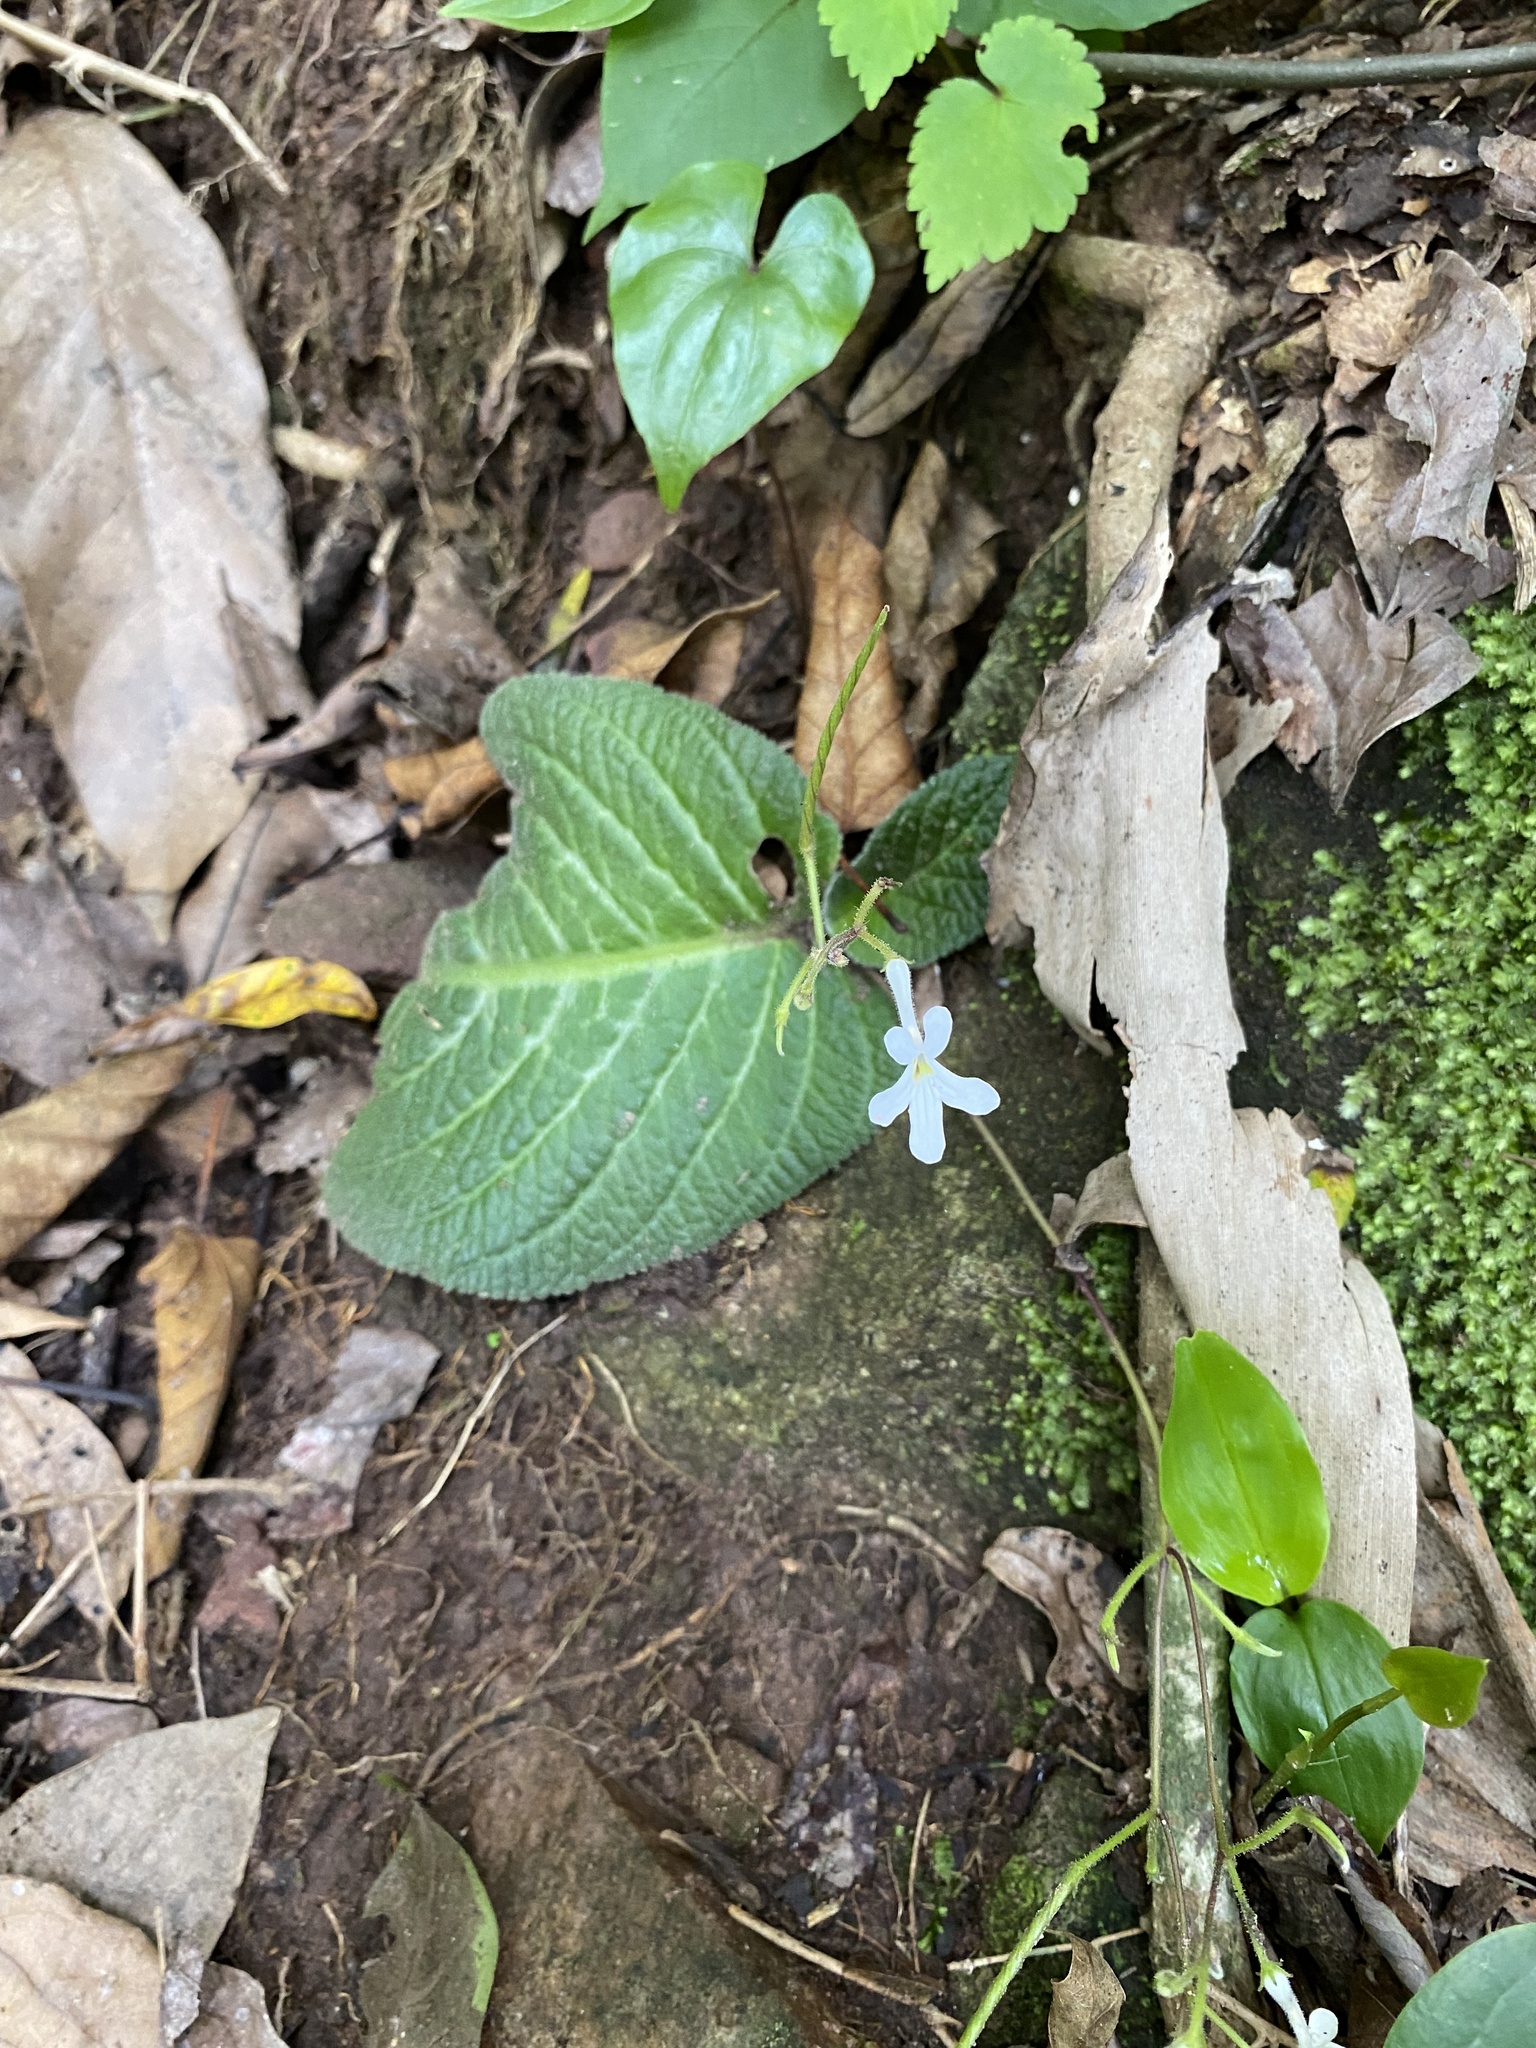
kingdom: Plantae
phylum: Tracheophyta
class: Magnoliopsida
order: Lamiales
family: Gesneriaceae
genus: Streptocarpus
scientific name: Streptocarpus prolixus
